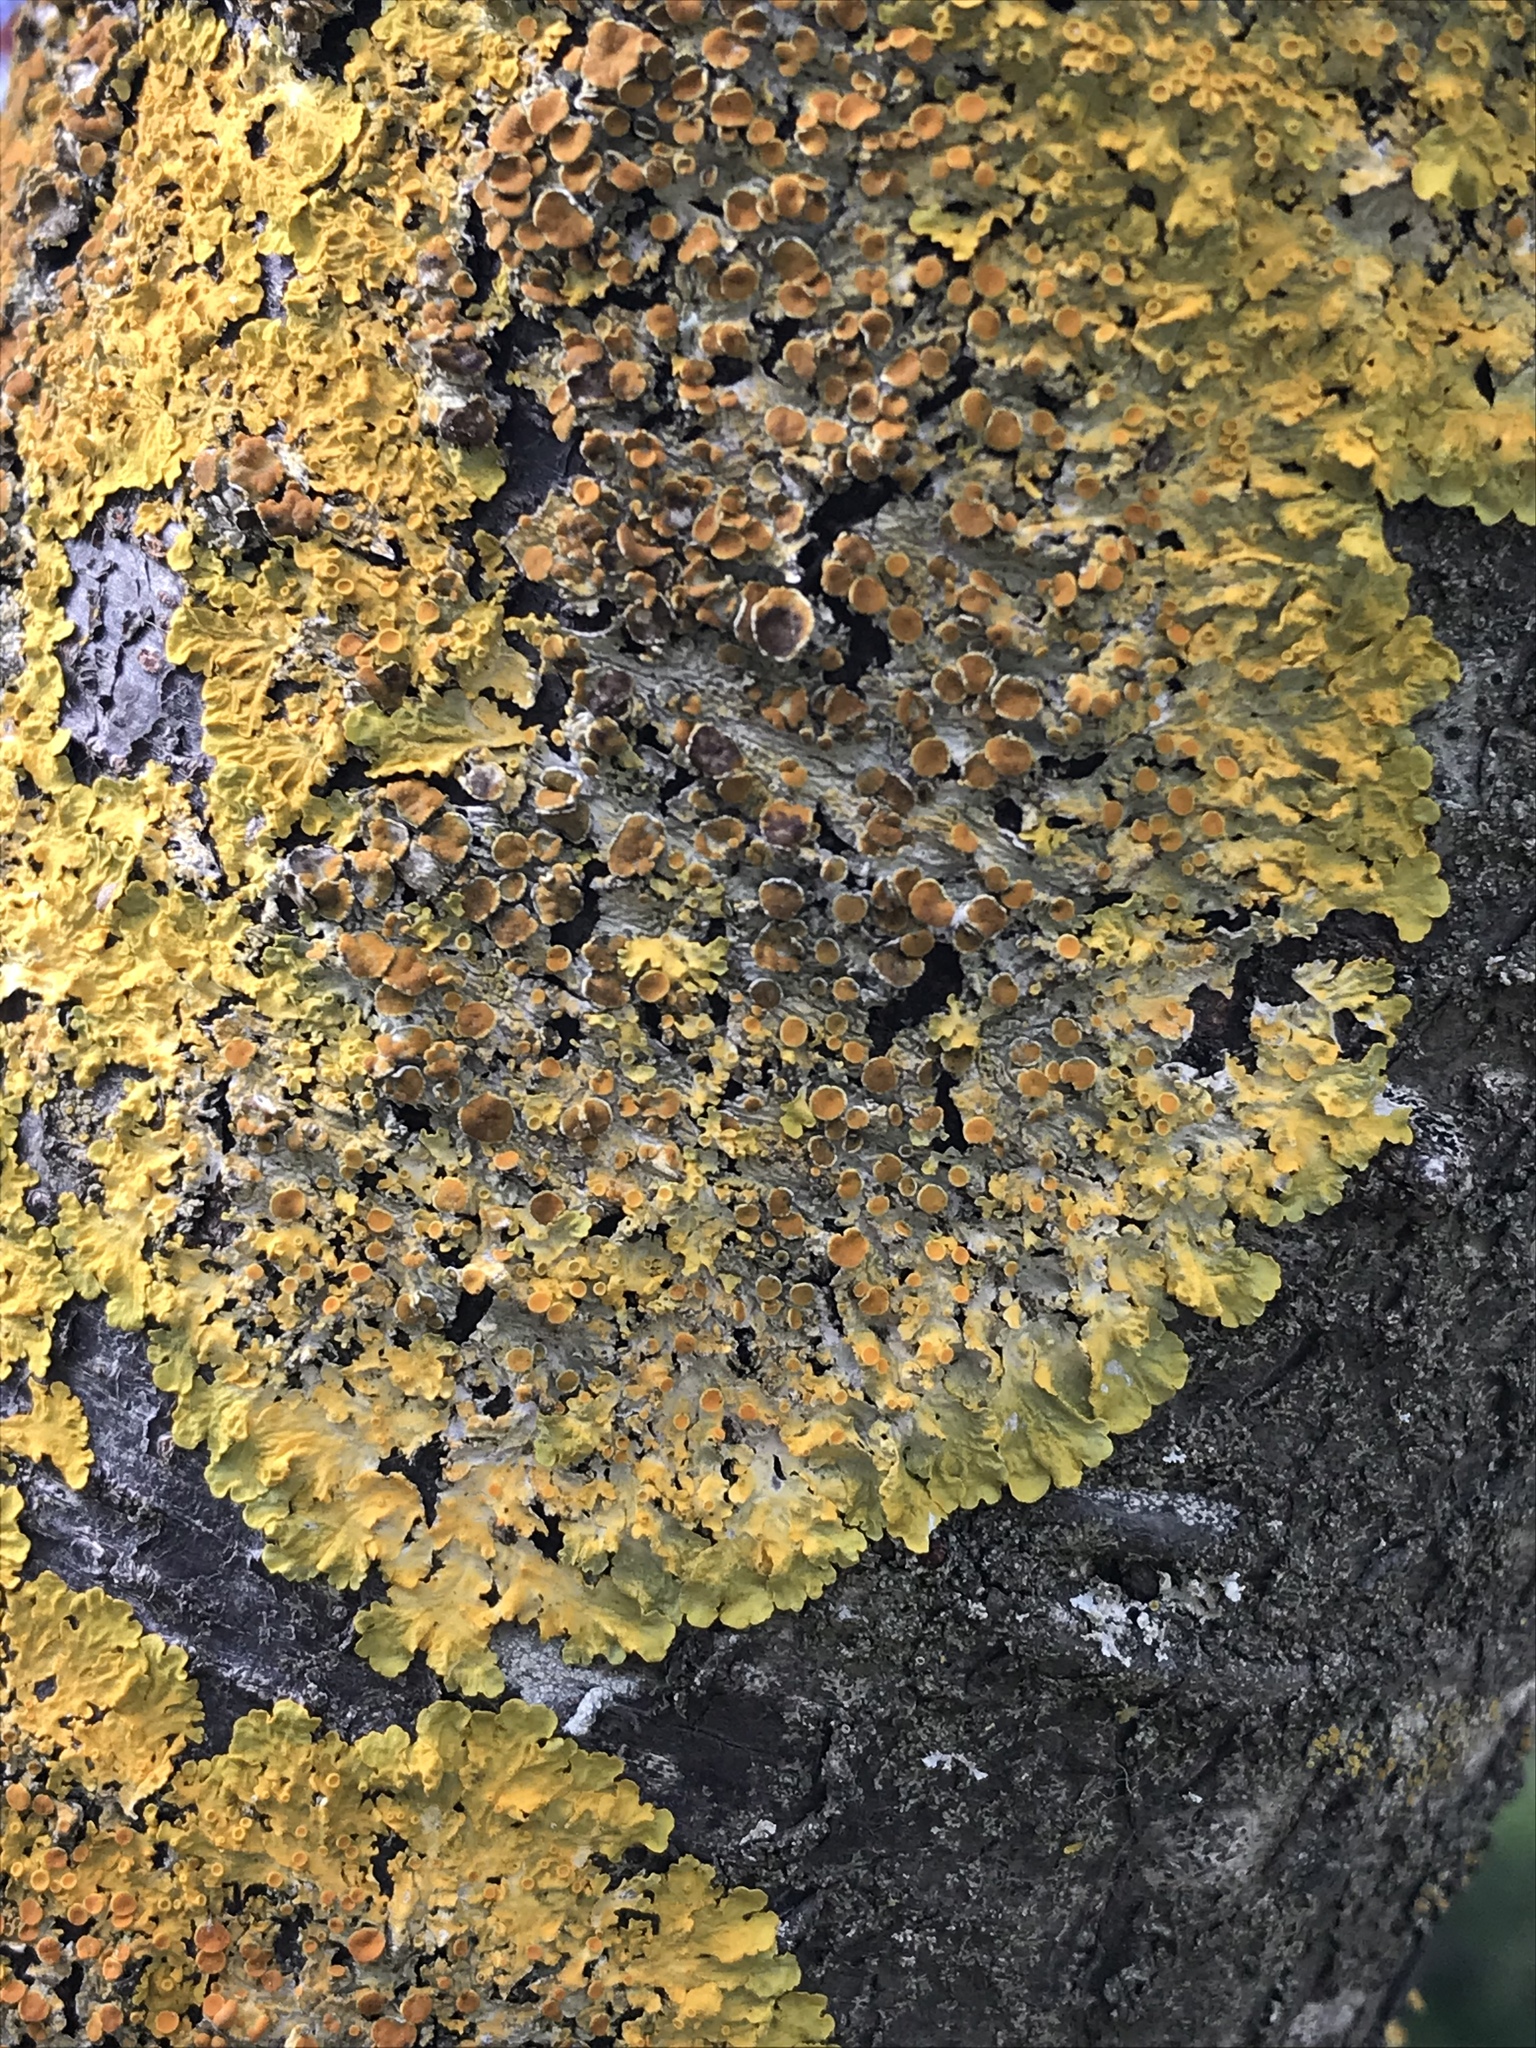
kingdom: Fungi
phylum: Ascomycota
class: Lecanoromycetes
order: Teloschistales
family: Teloschistaceae
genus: Xanthoria
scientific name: Xanthoria parietina
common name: Common orange lichen
